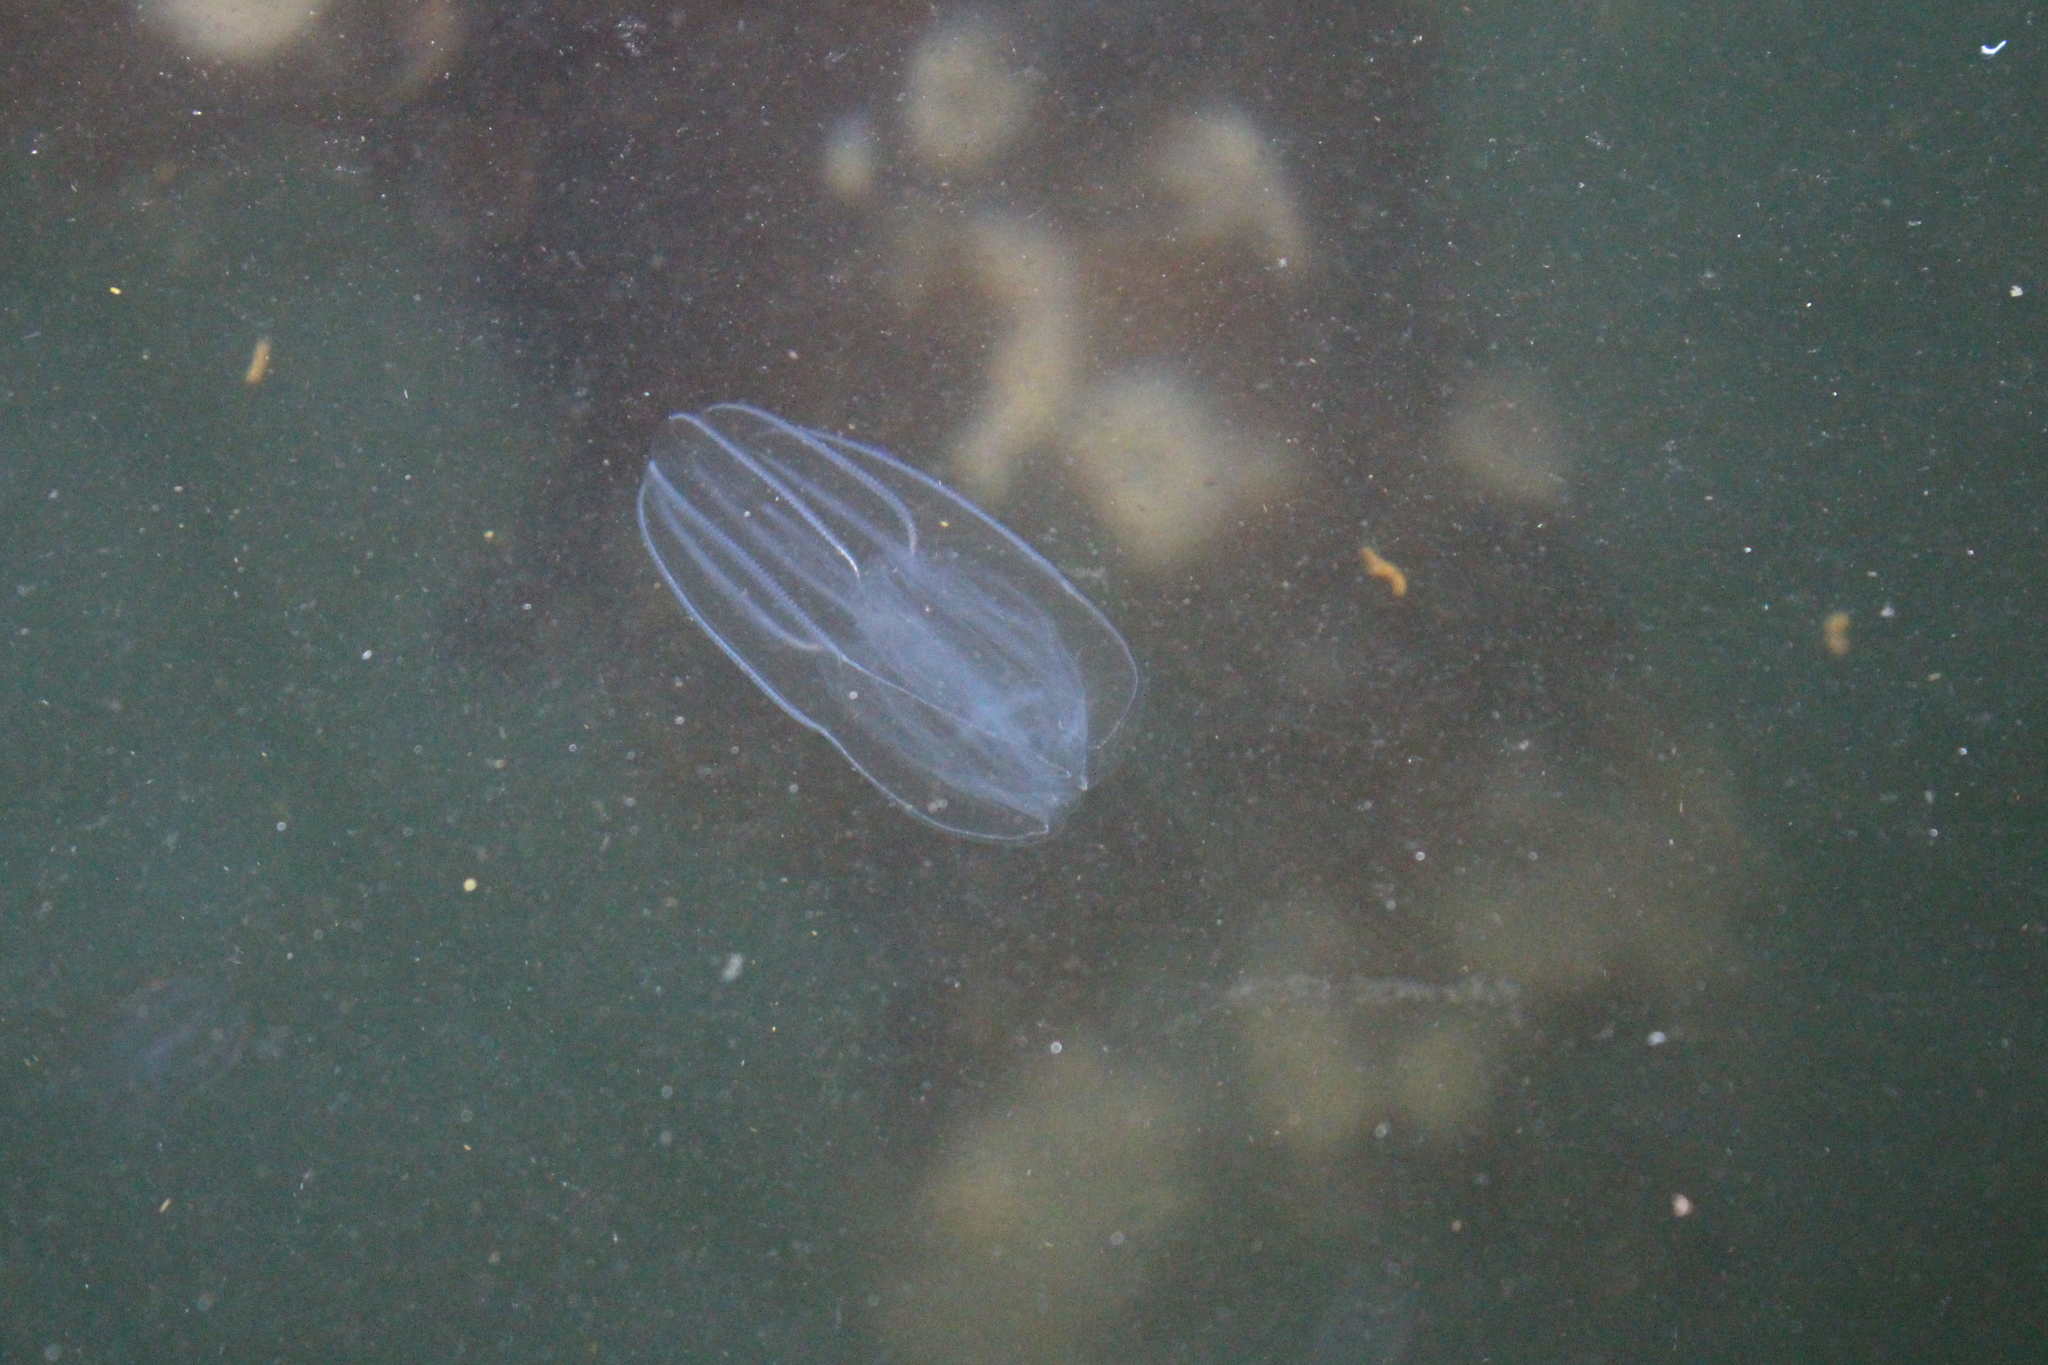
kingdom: Animalia
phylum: Ctenophora
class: Tentaculata
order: Lobata
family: Bolinopsidae
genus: Bolinopsis
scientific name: Bolinopsis microptera
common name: Short-lobed comb jelly
